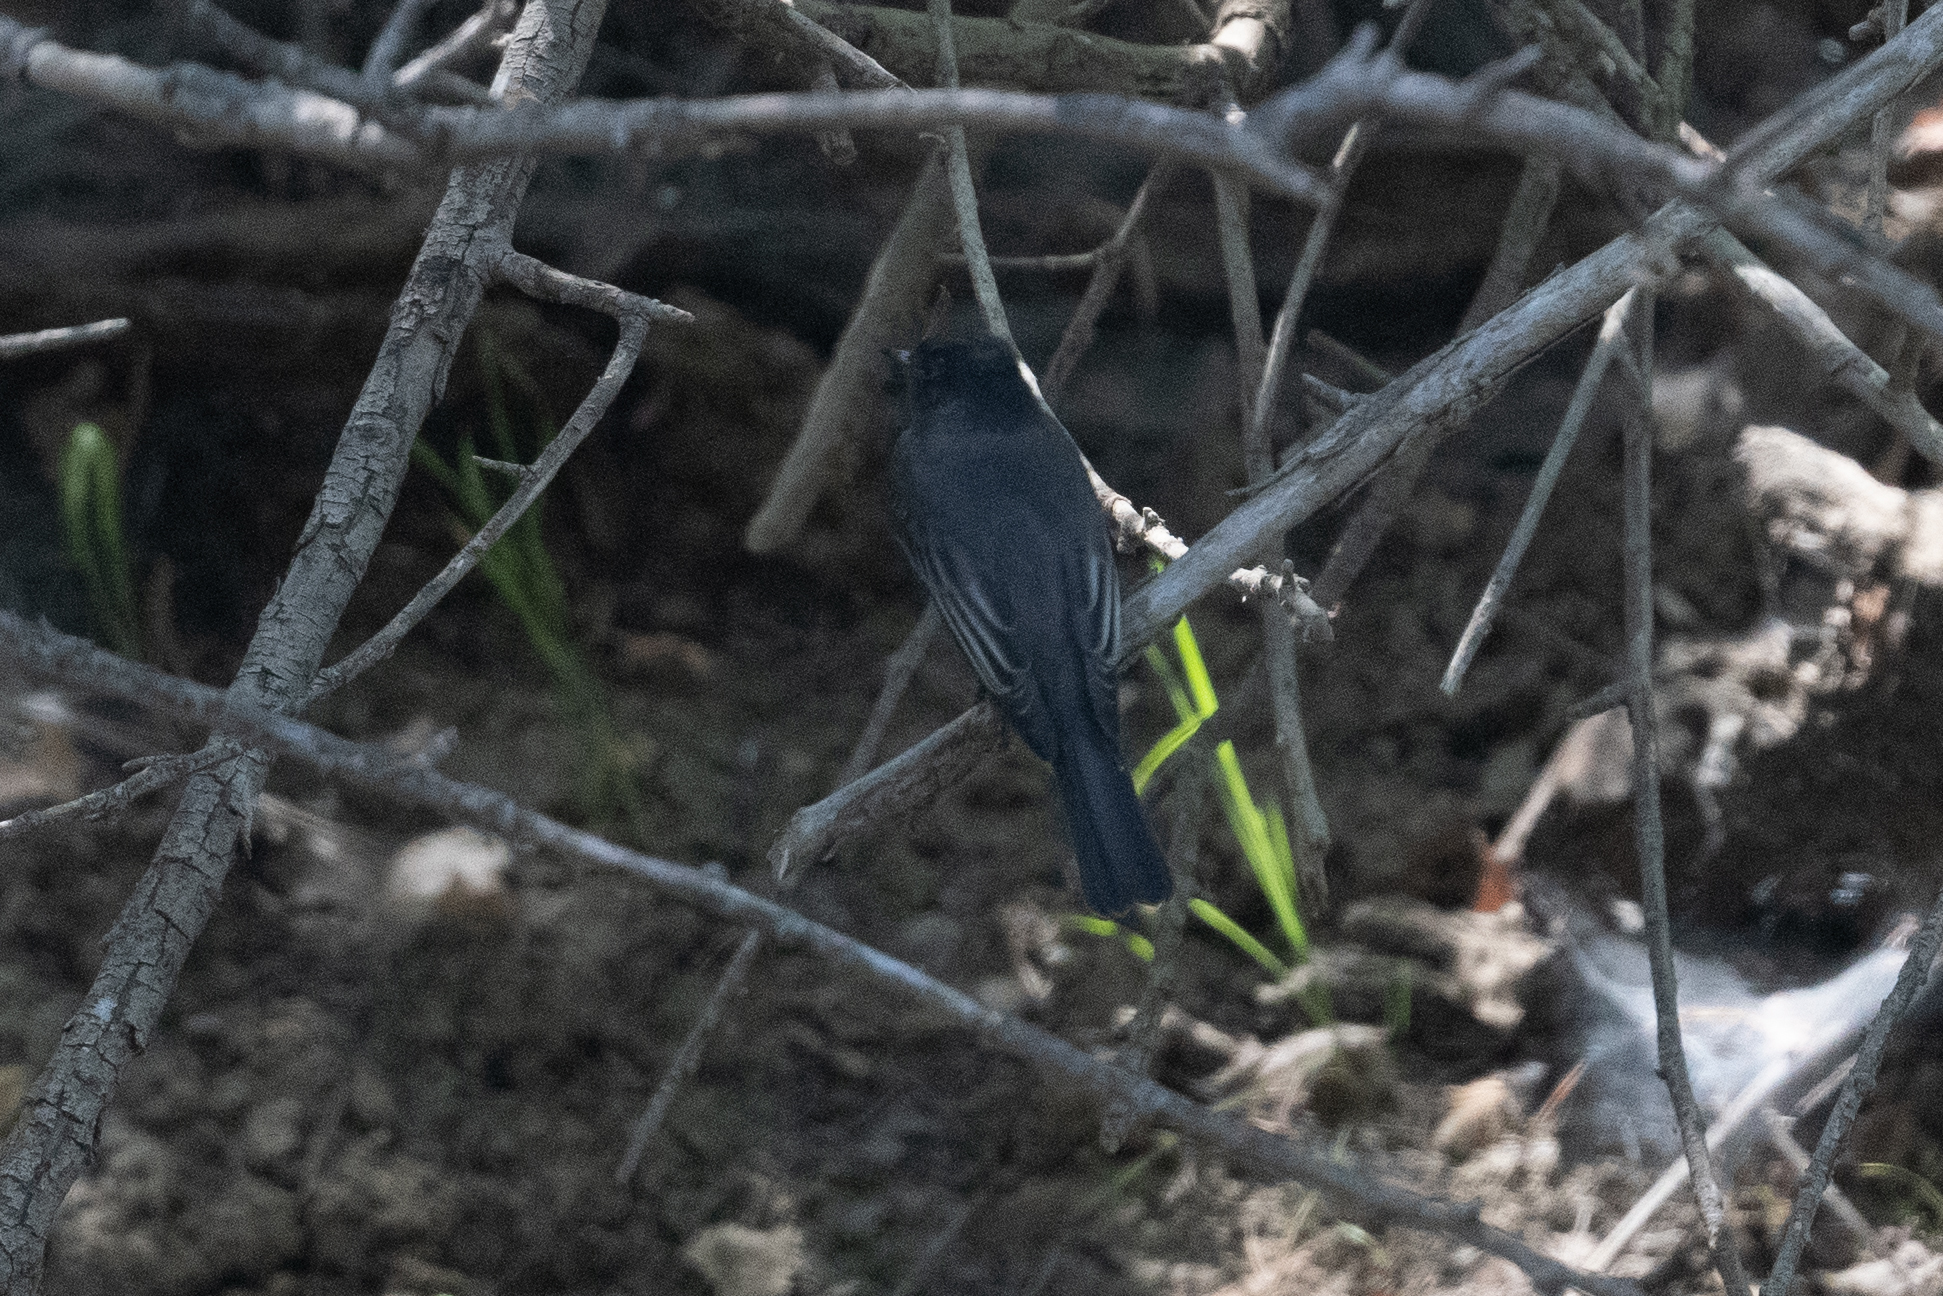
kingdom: Animalia
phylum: Chordata
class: Aves
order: Passeriformes
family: Tyrannidae
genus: Sayornis
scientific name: Sayornis nigricans
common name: Black phoebe
